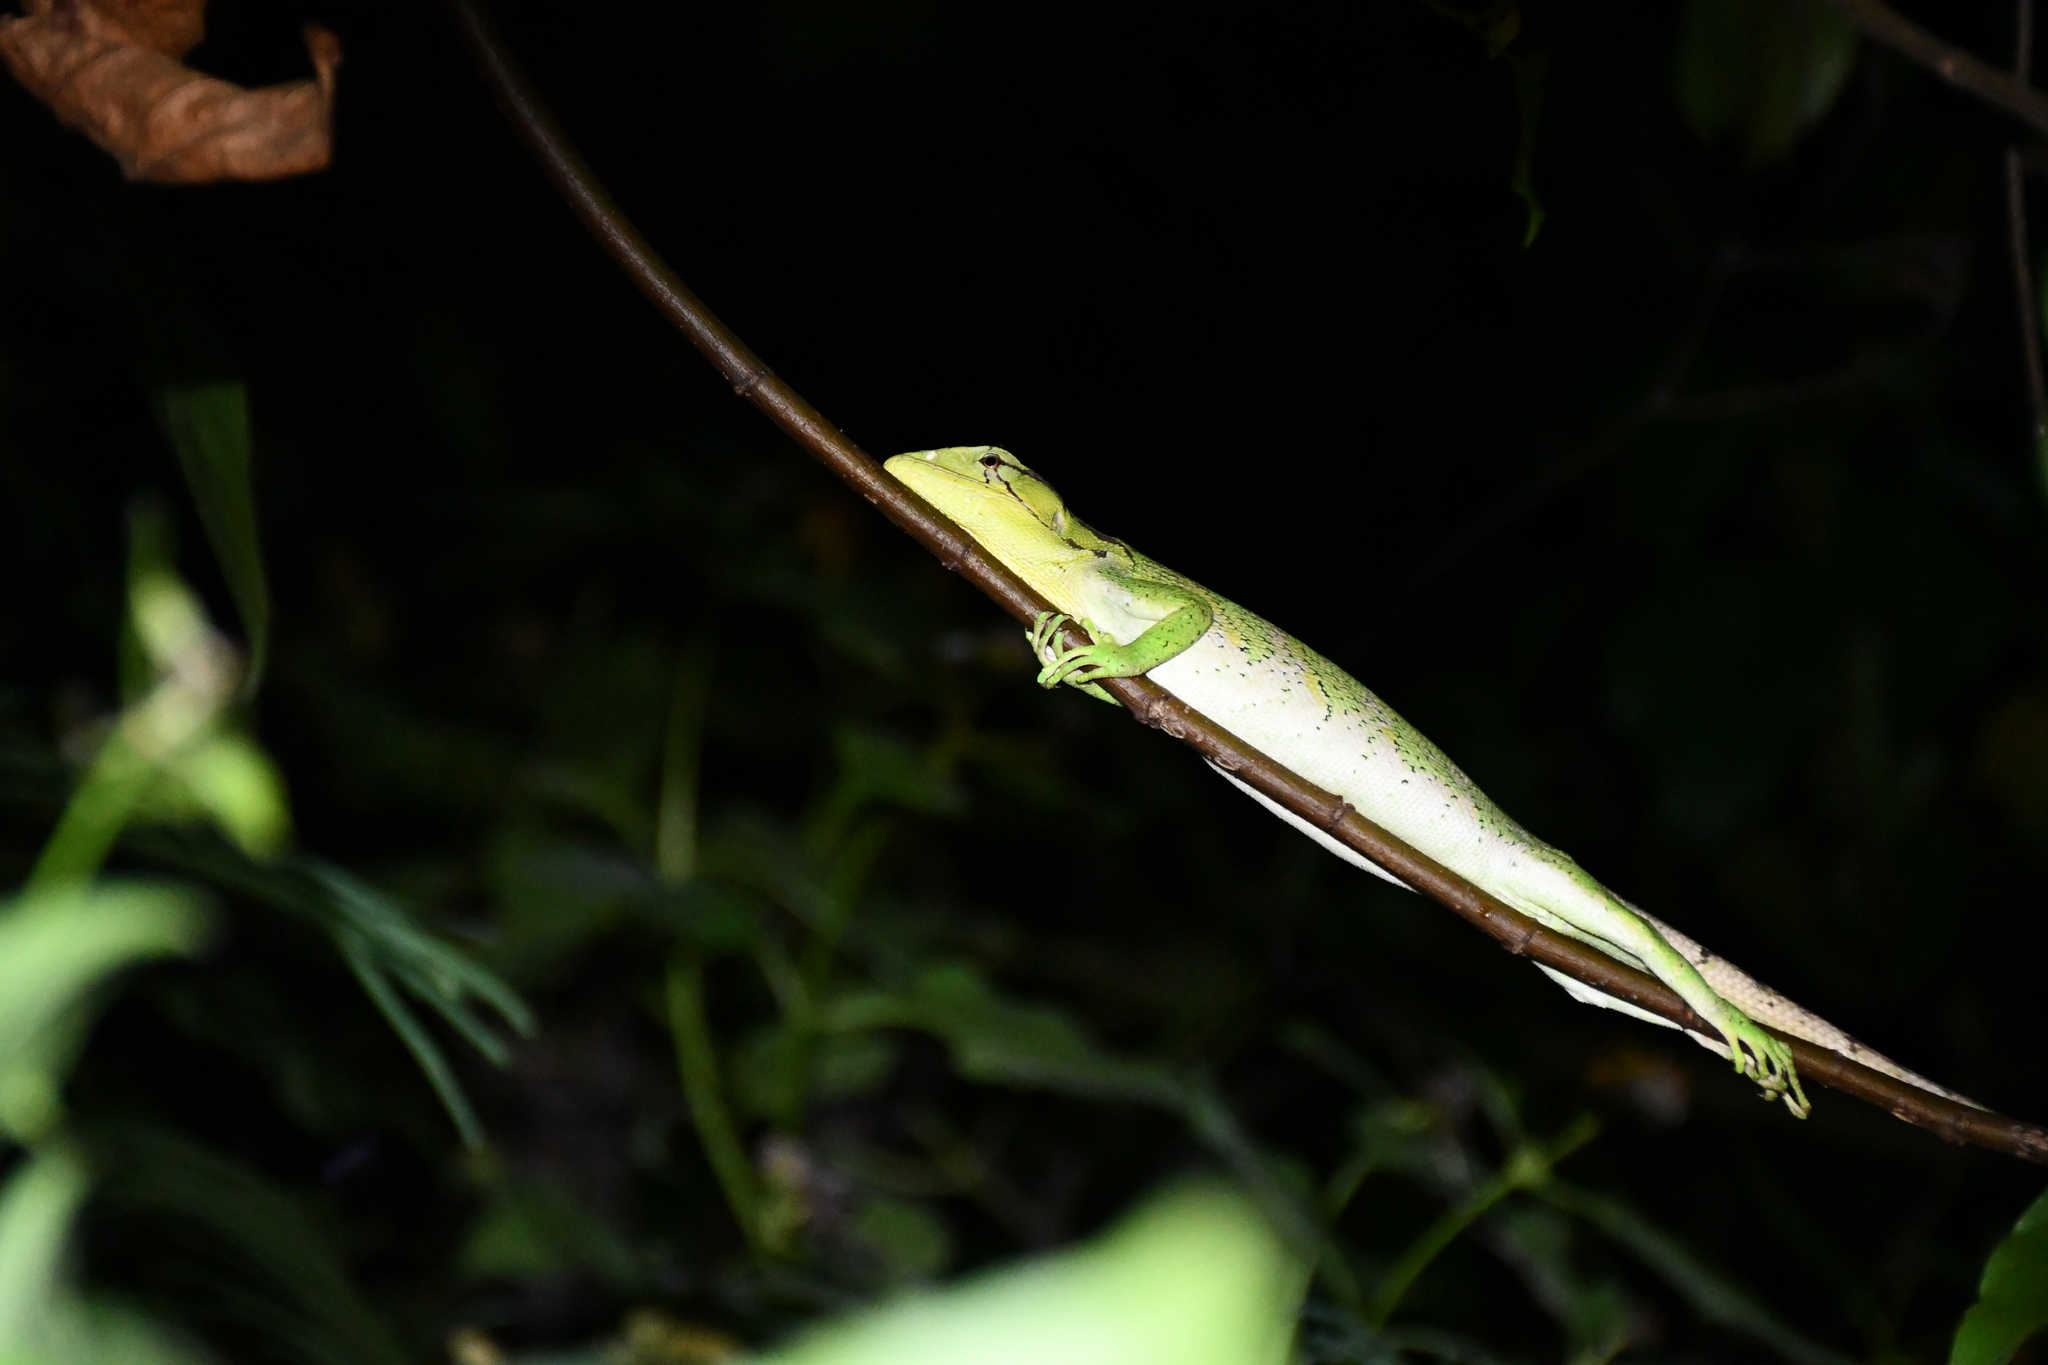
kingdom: Animalia
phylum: Chordata
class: Squamata
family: Polychrotidae
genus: Polychrus
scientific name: Polychrus liogaster
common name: Boulenger's bush anole
